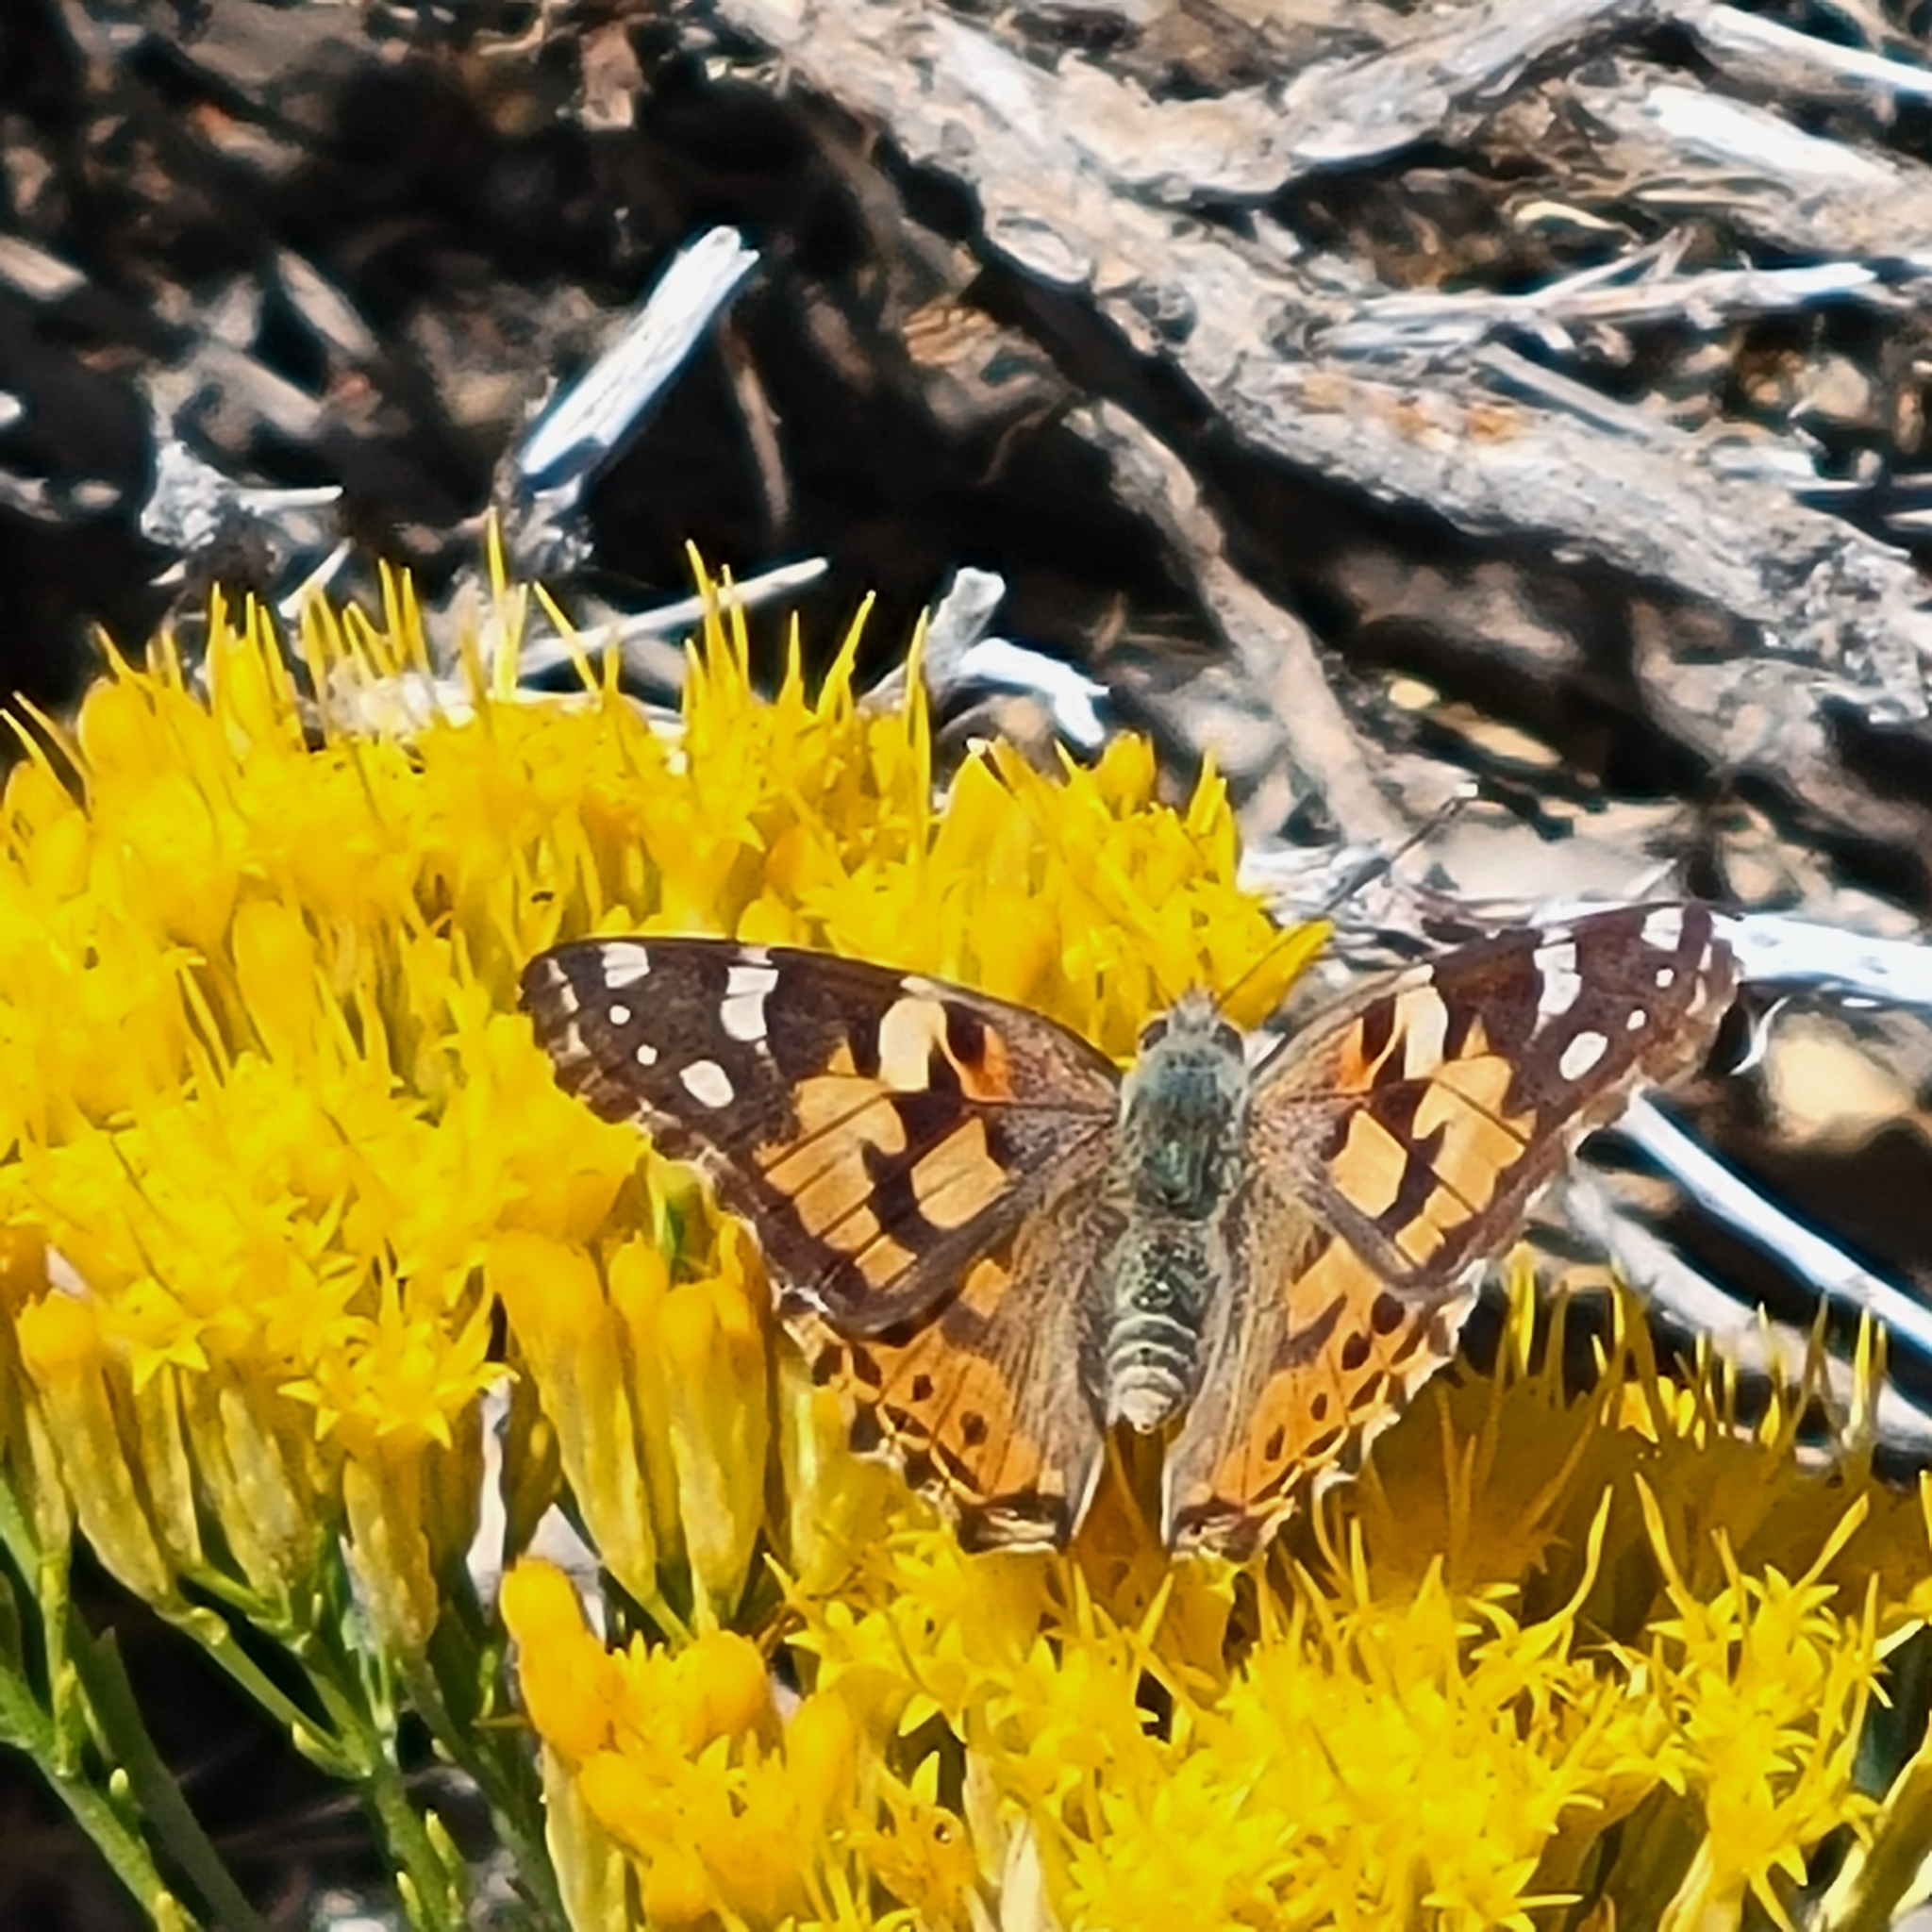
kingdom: Animalia
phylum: Arthropoda
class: Insecta
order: Lepidoptera
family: Nymphalidae
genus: Vanessa
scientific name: Vanessa cardui
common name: Painted lady
